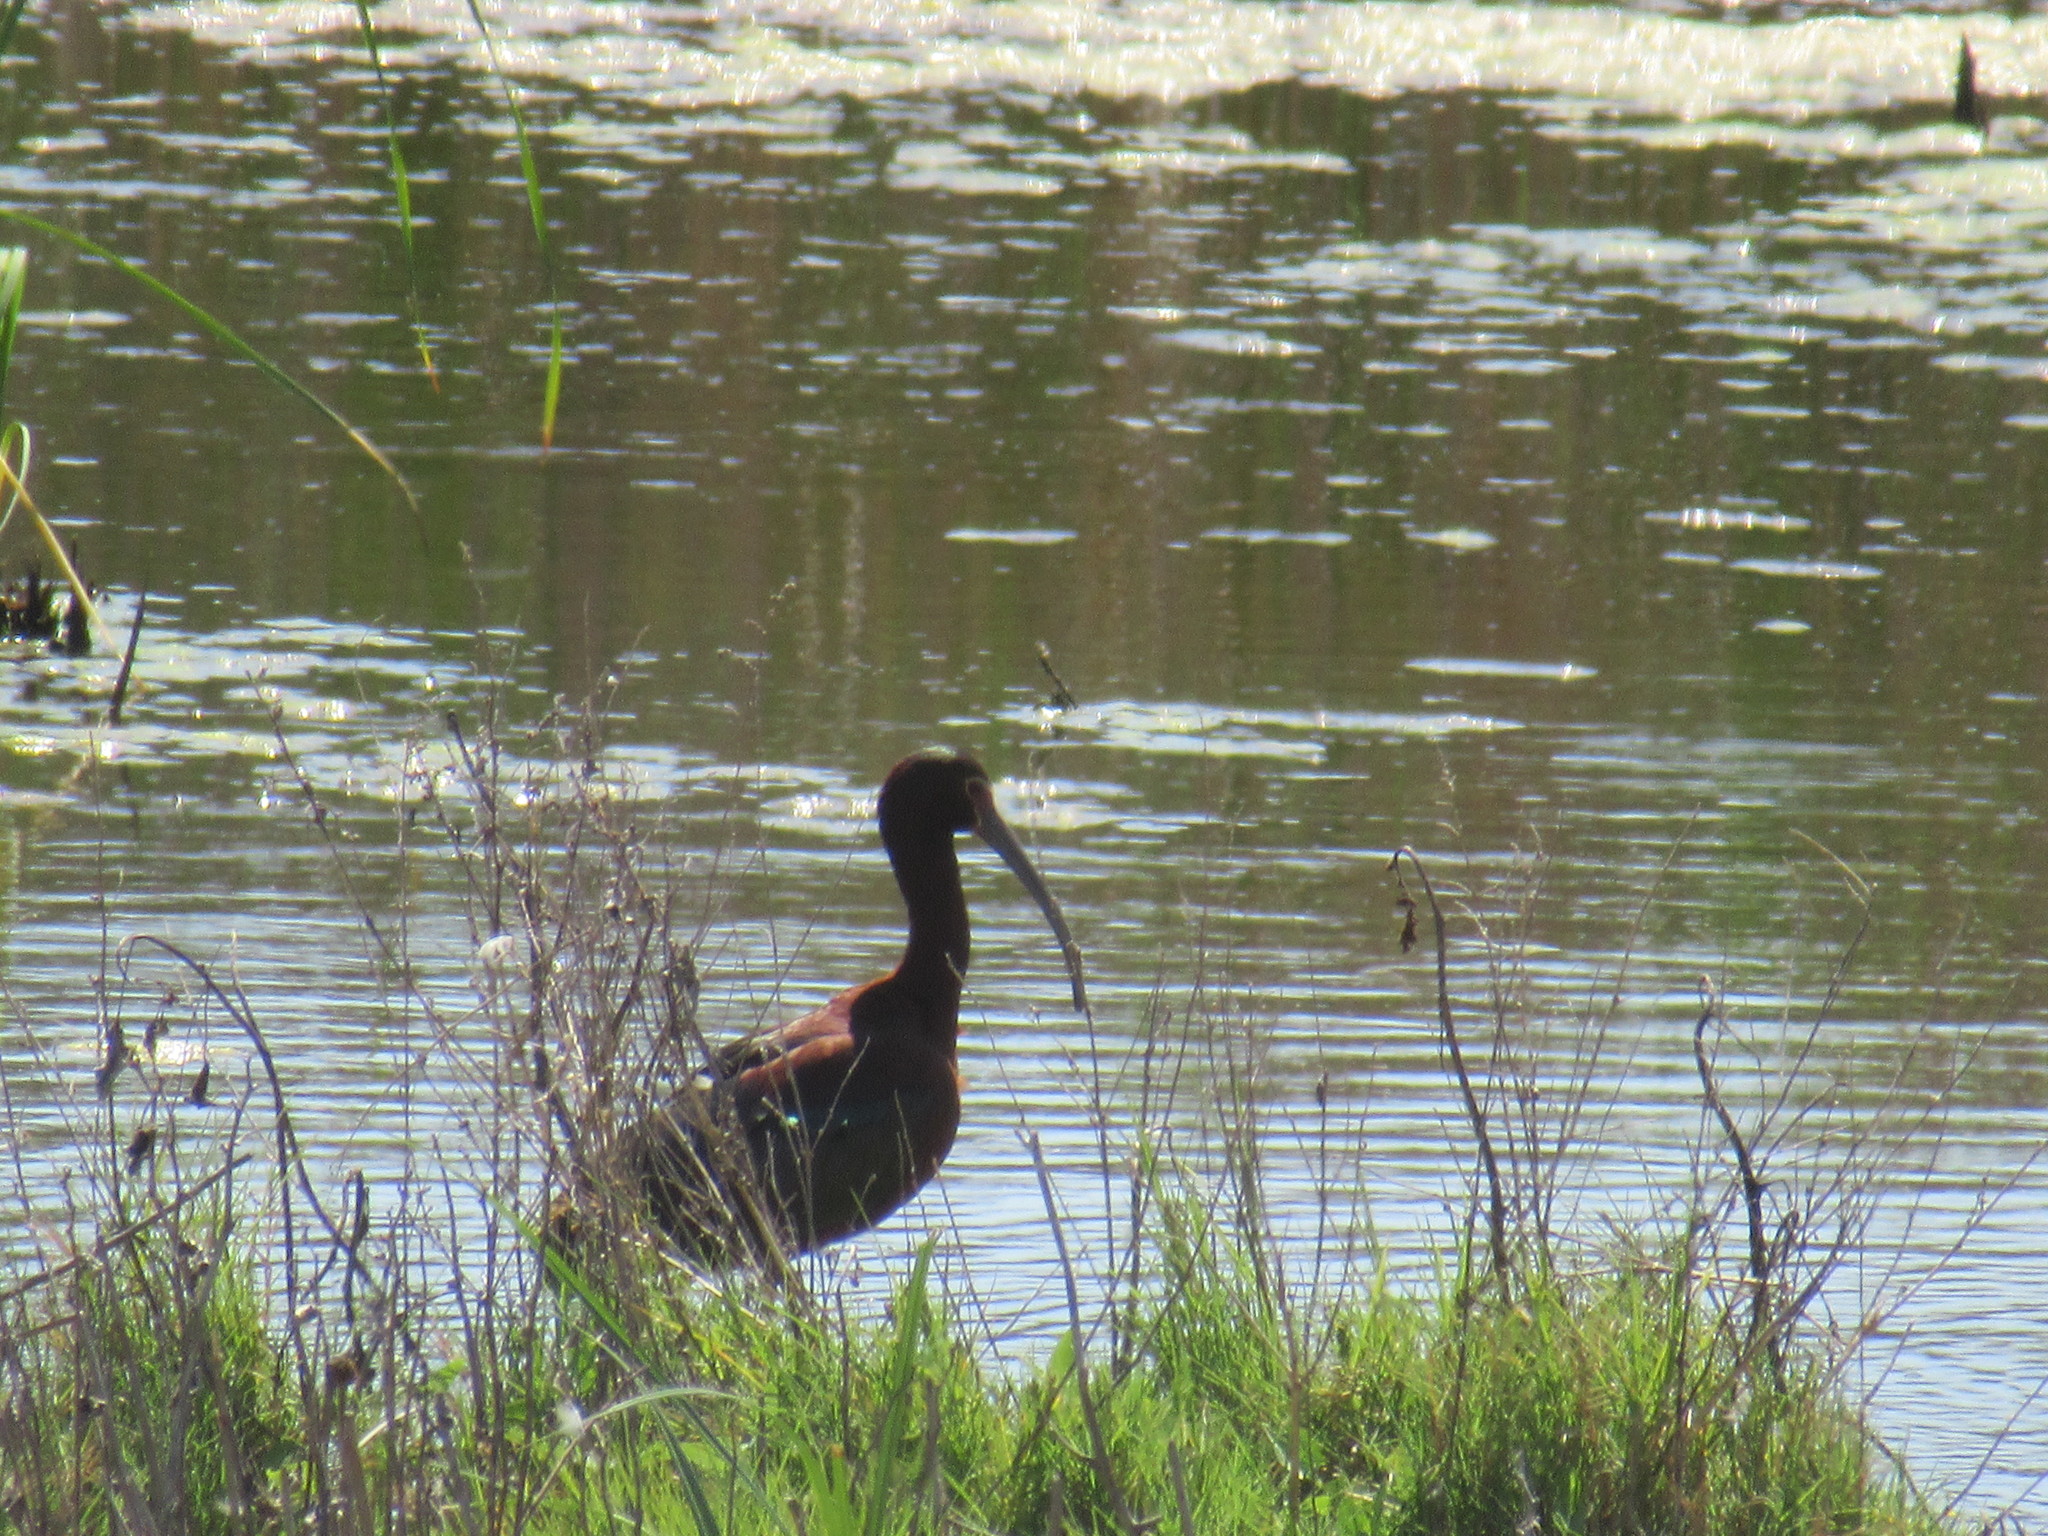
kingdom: Animalia
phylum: Chordata
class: Aves
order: Pelecaniformes
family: Threskiornithidae
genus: Plegadis
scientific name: Plegadis chihi
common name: White-faced ibis
